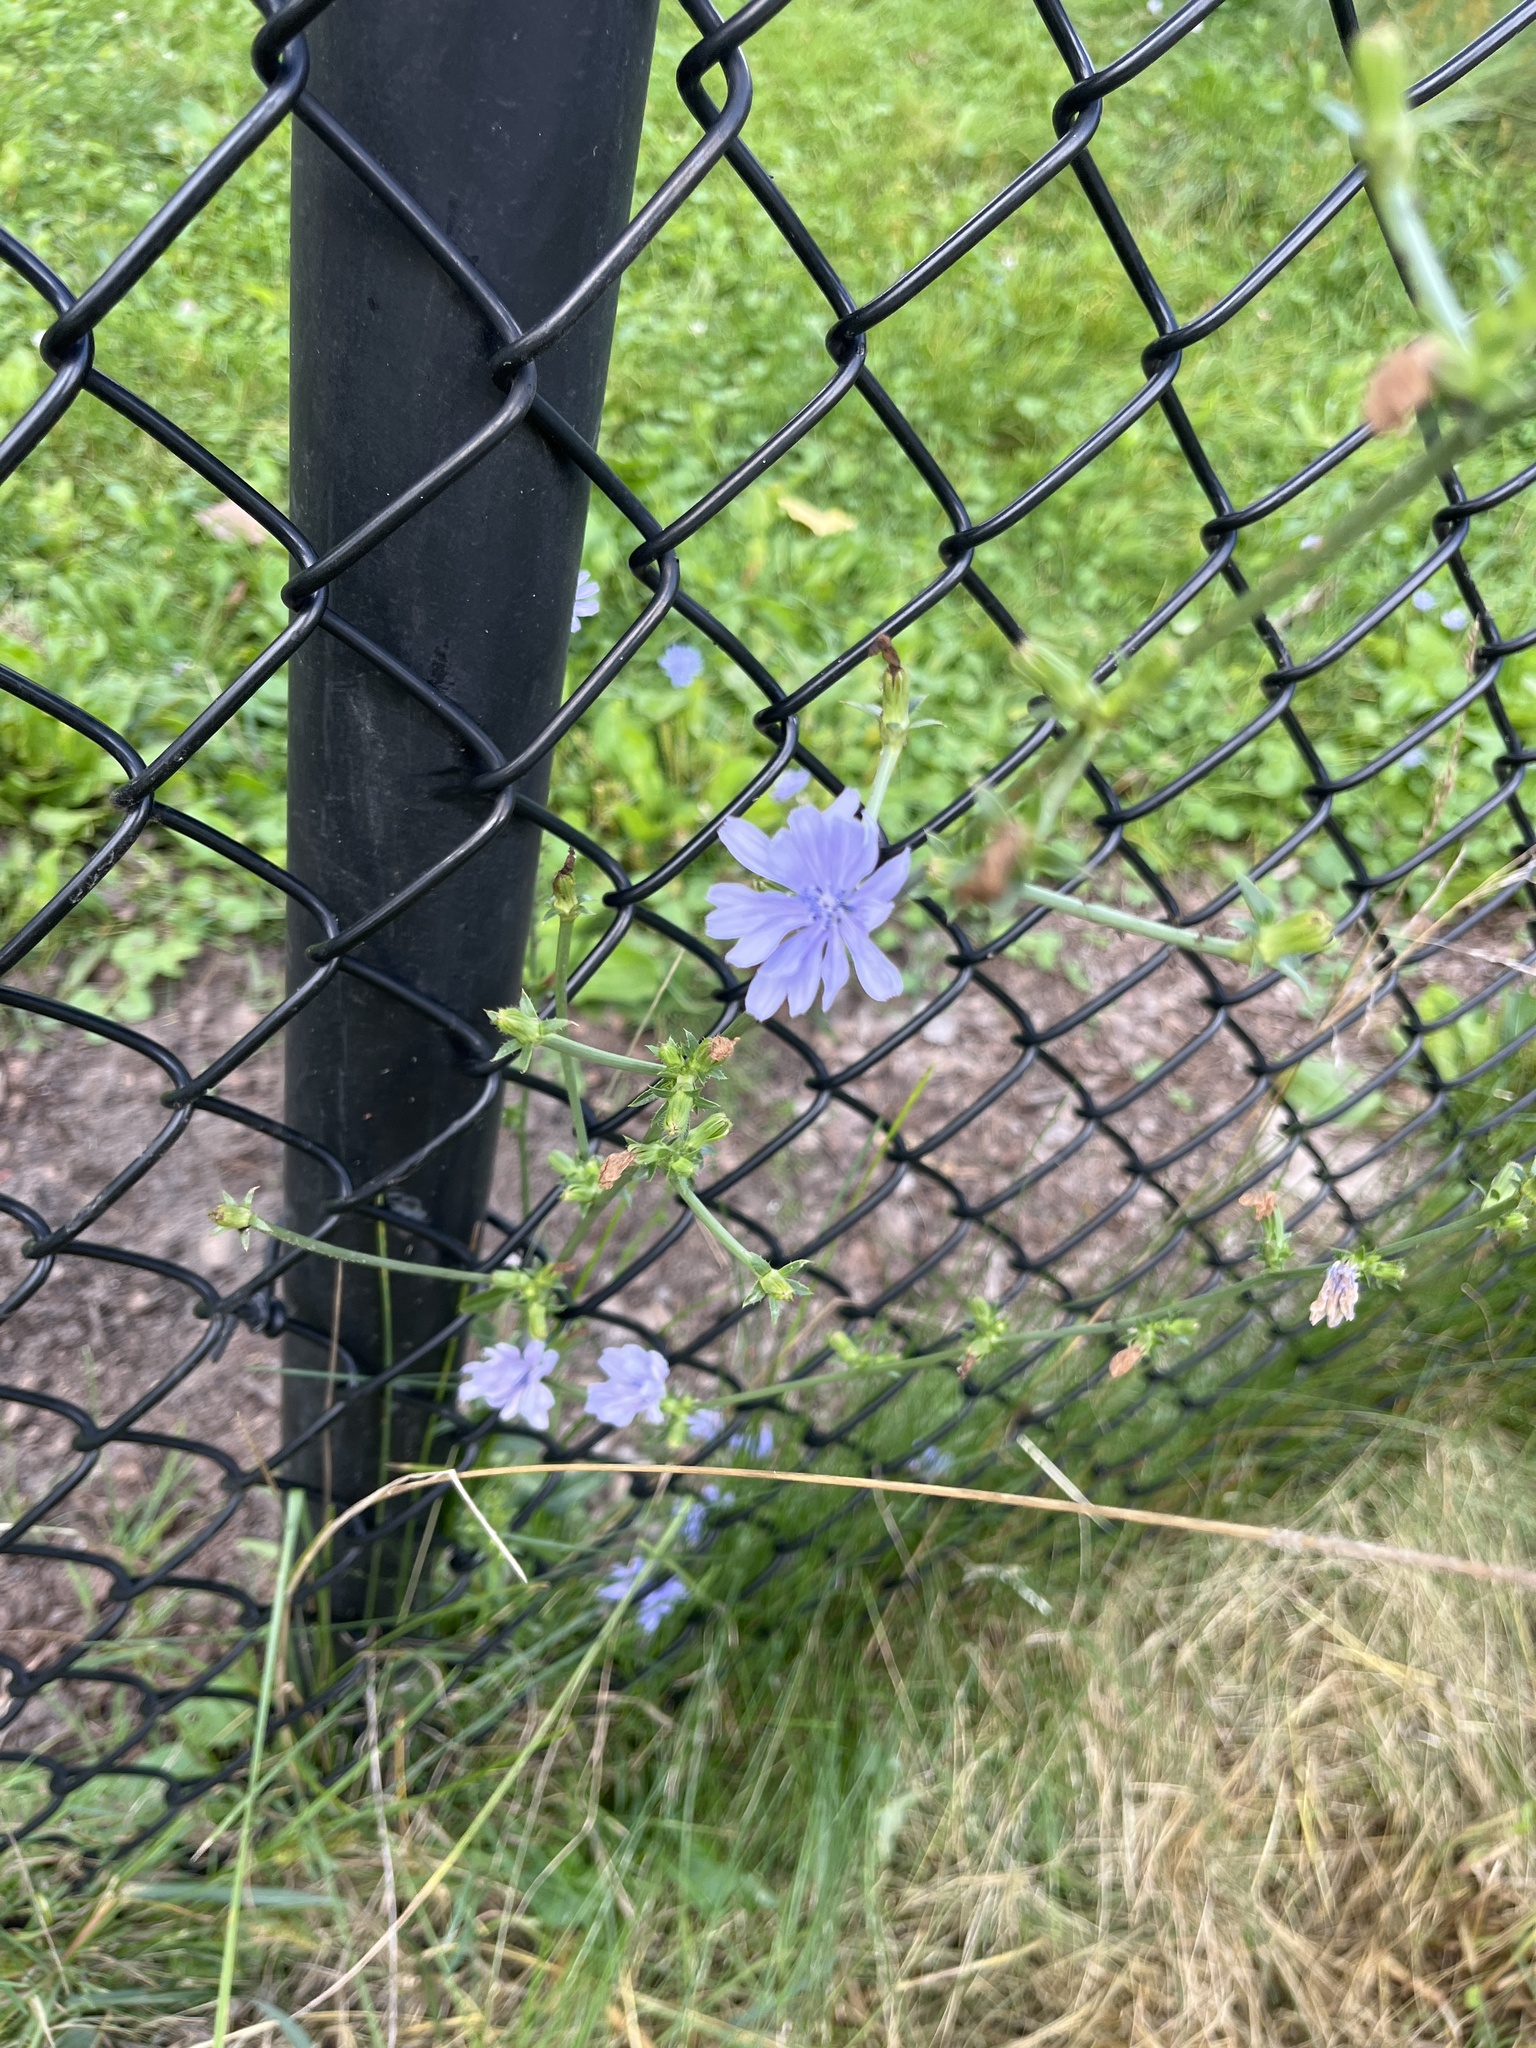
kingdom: Plantae
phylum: Tracheophyta
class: Magnoliopsida
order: Asterales
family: Asteraceae
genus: Cichorium
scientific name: Cichorium intybus
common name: Chicory
